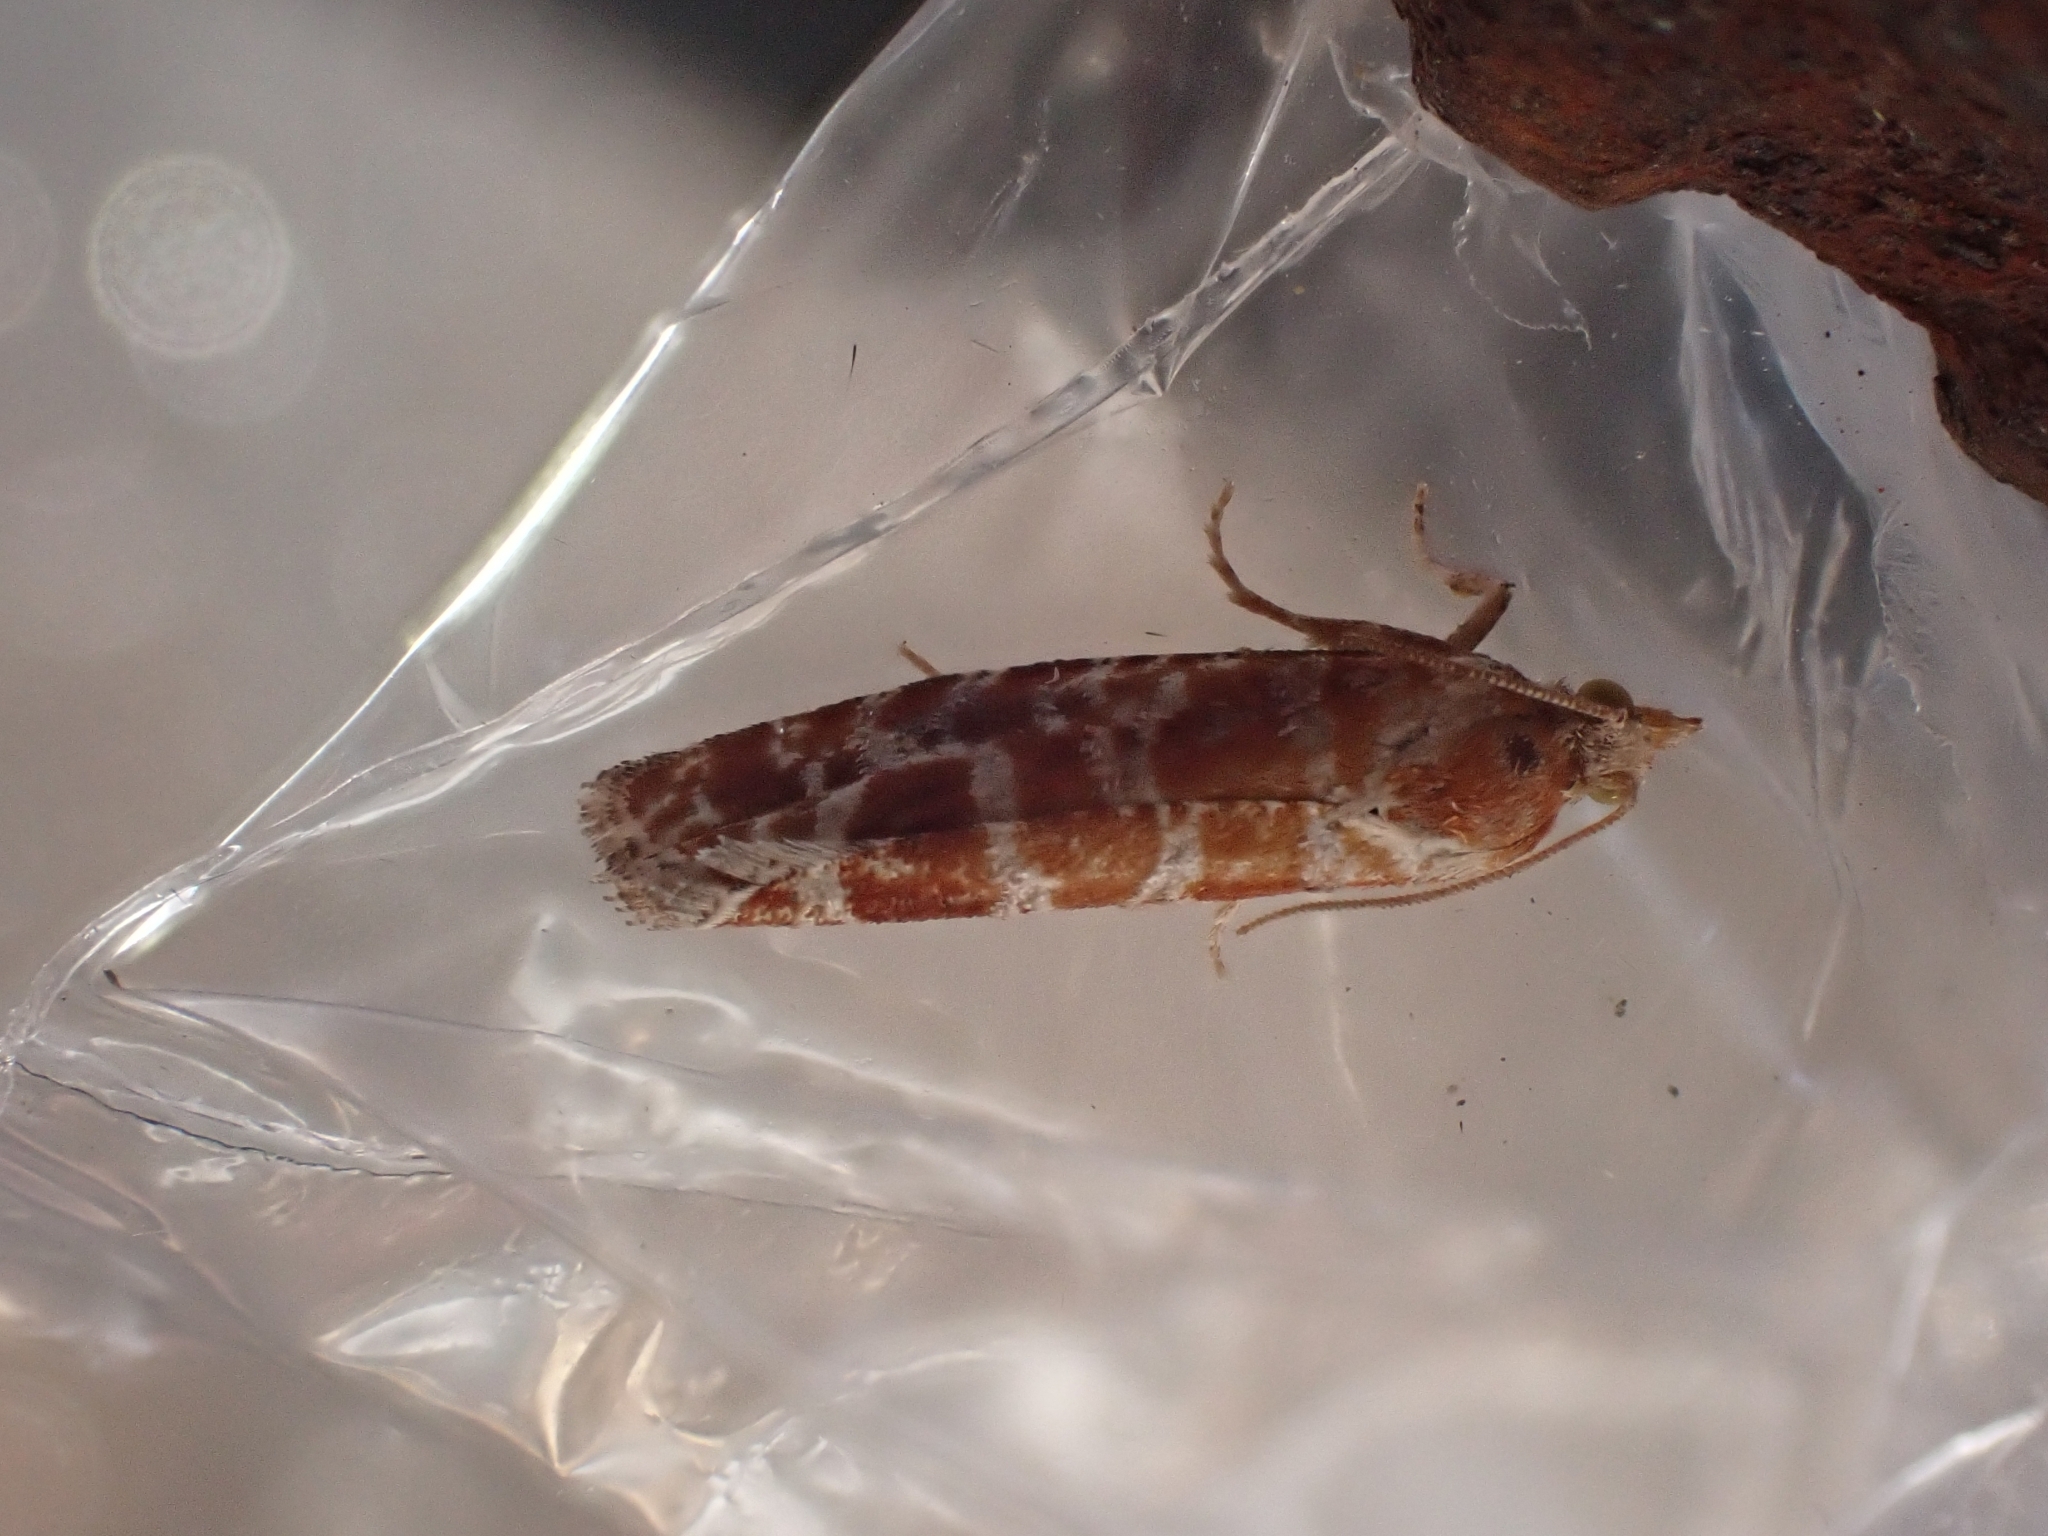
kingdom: Animalia
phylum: Arthropoda
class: Insecta
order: Lepidoptera
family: Tortricidae
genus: Rhyacionia
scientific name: Rhyacionia pinicolana
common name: Orange-spotted shoot
